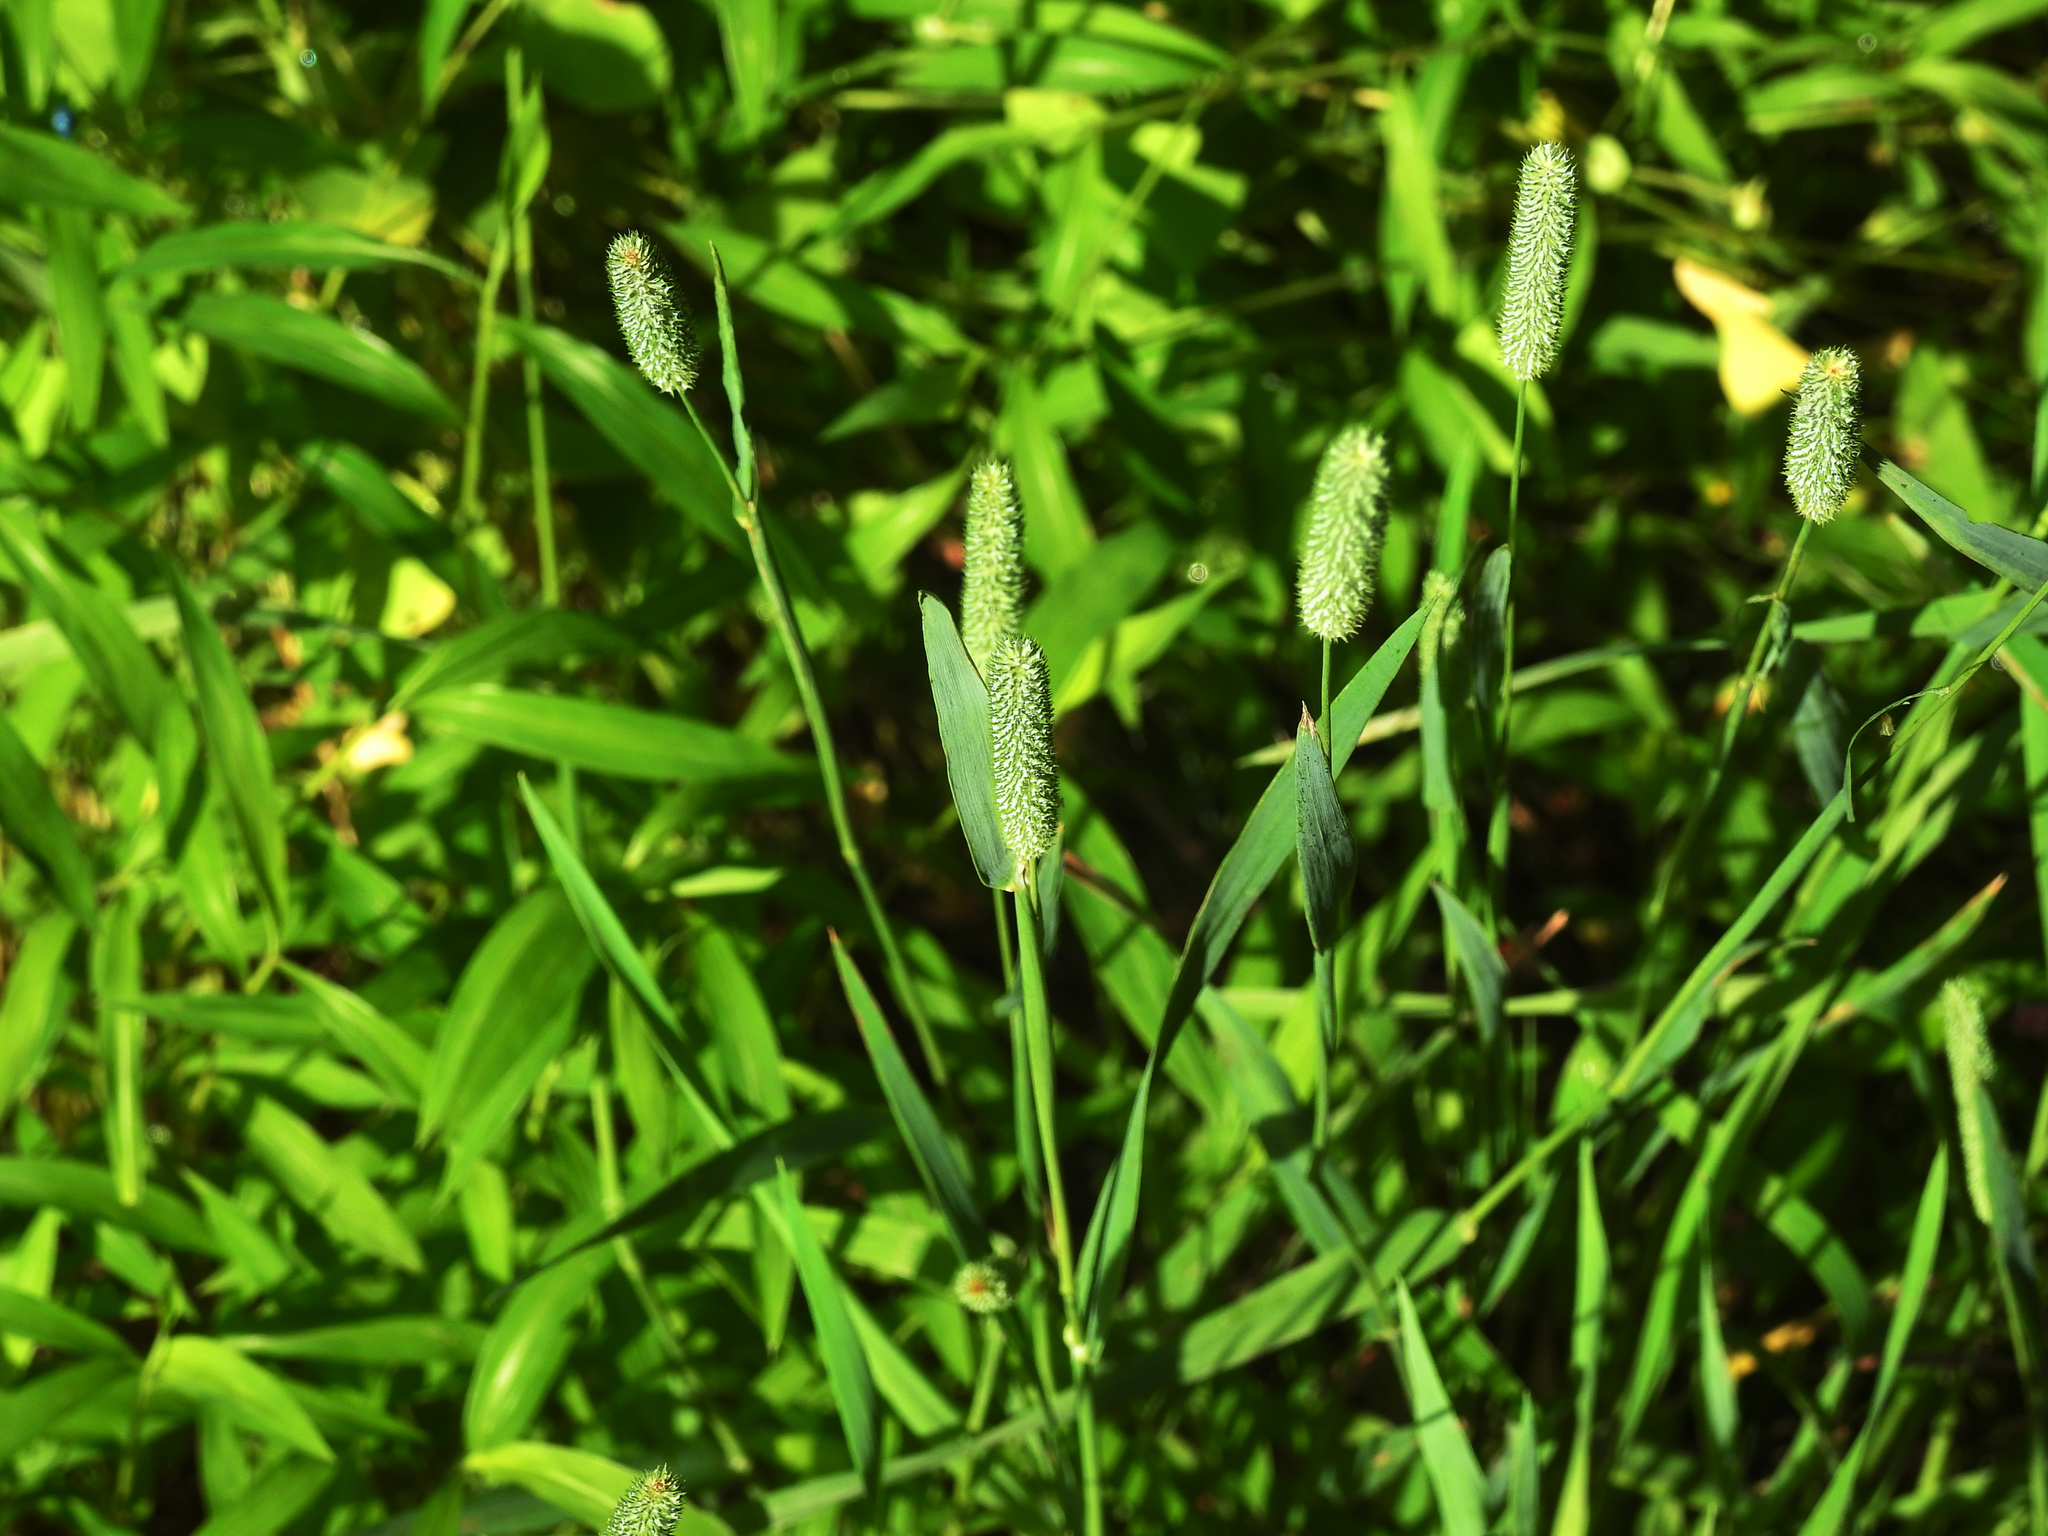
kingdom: Plantae
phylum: Tracheophyta
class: Liliopsida
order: Poales
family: Poaceae
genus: Phleum
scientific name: Phleum pratense
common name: Timothy grass
